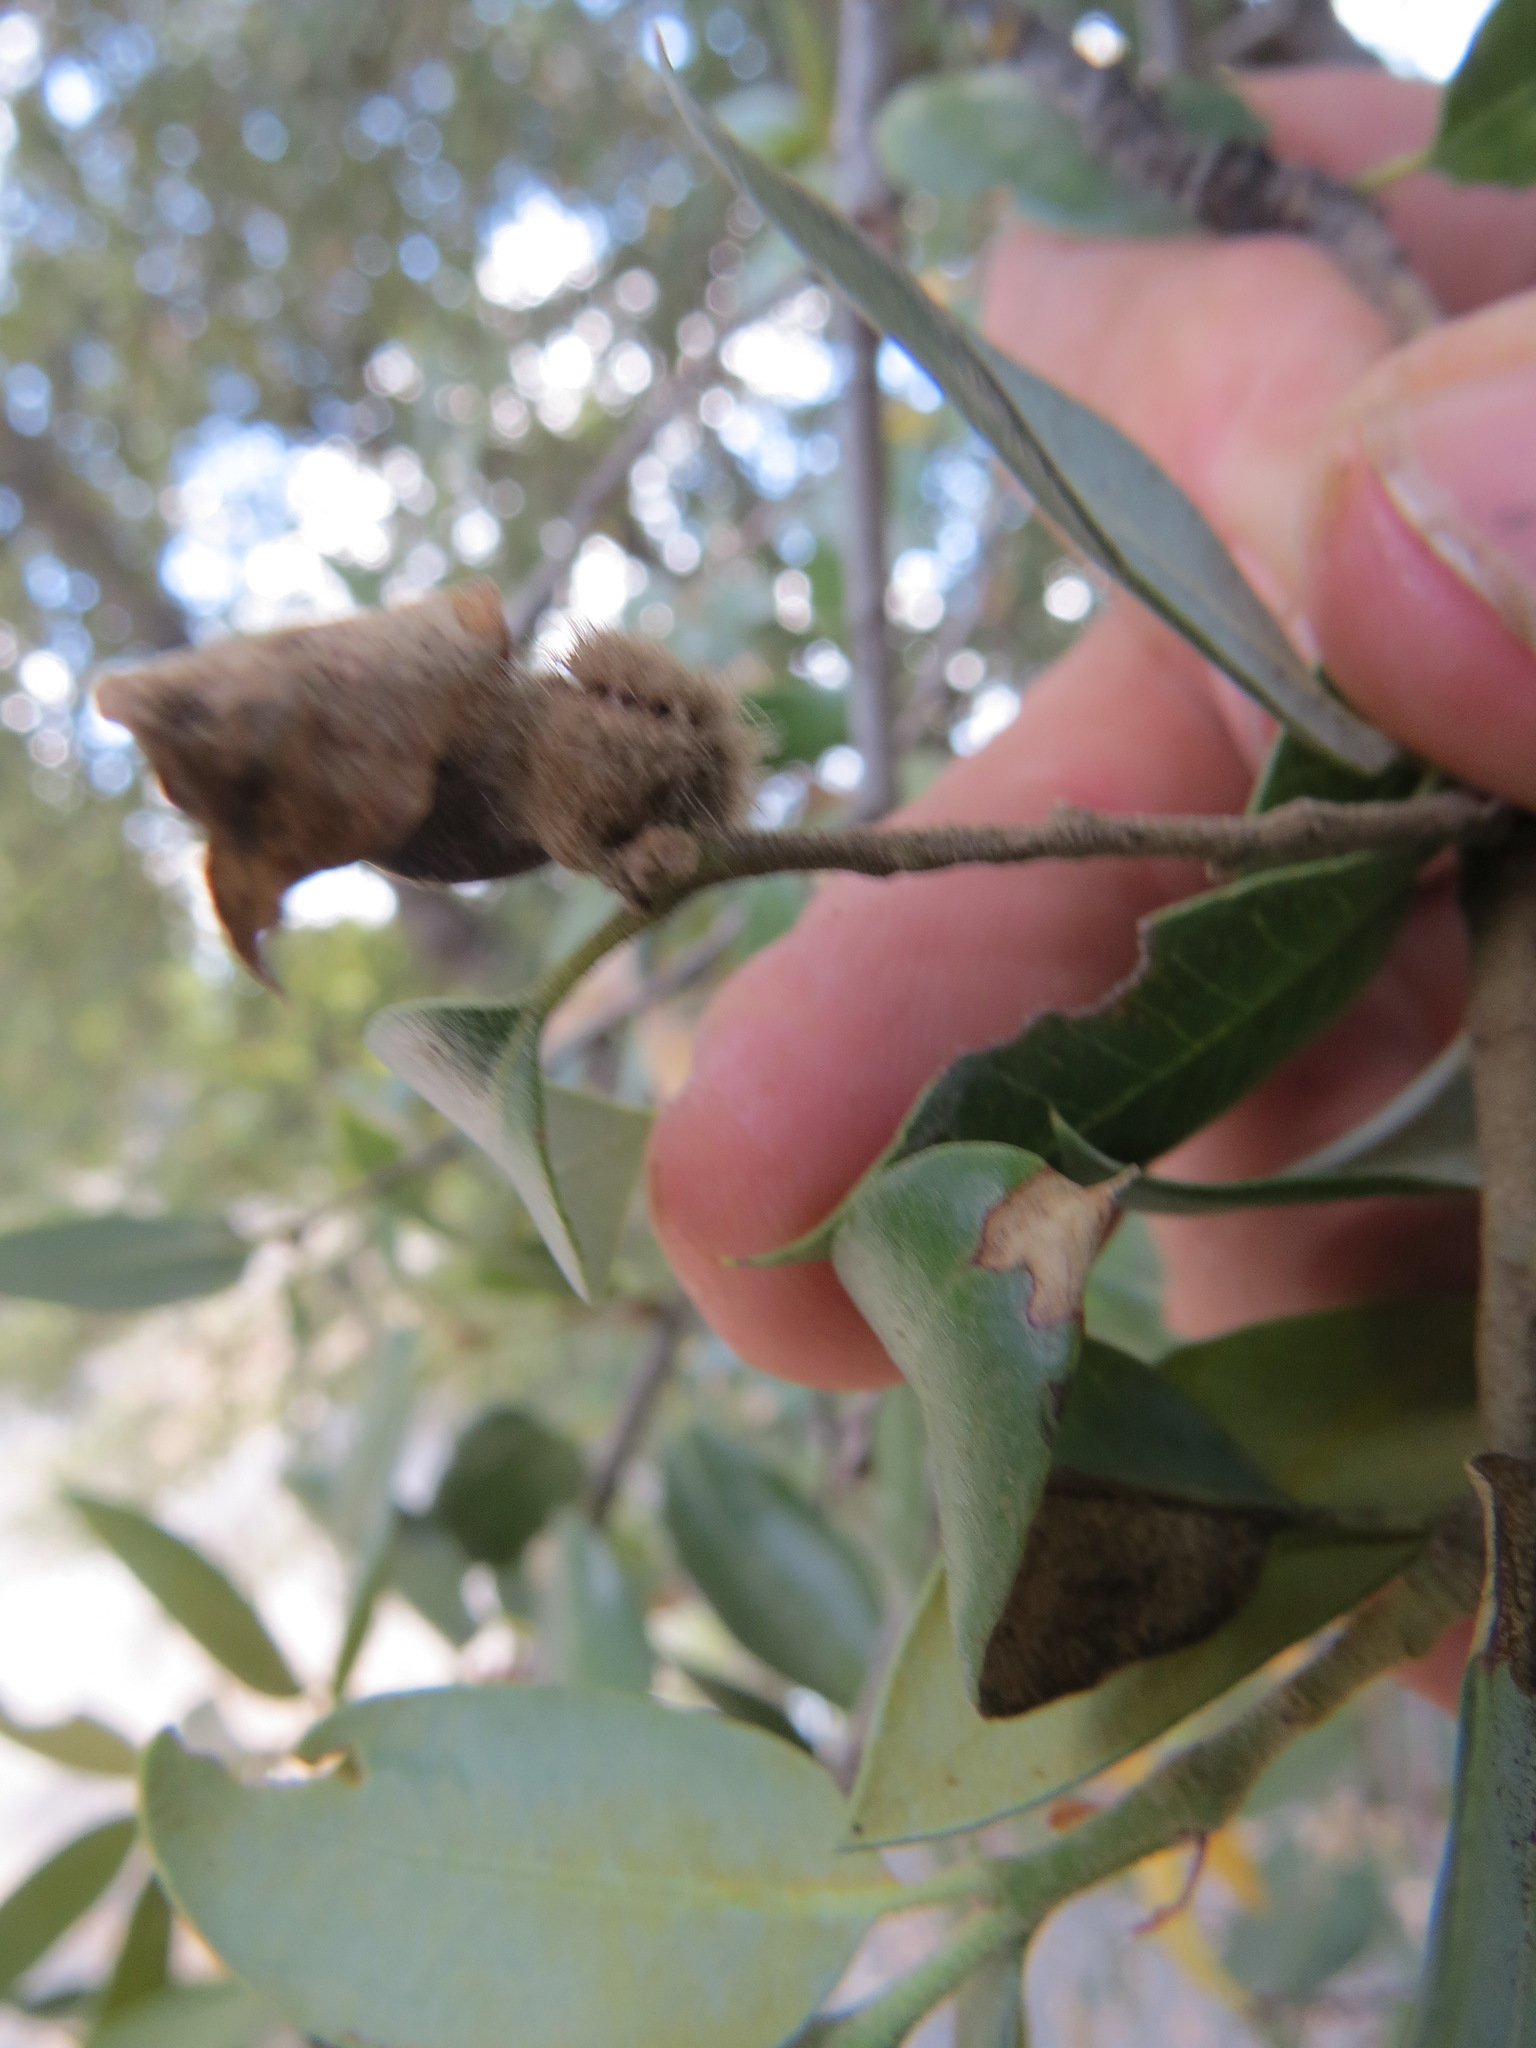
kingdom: Animalia
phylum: Arthropoda
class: Insecta
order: Hymenoptera
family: Cynipidae
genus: Disholandricus
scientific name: Disholandricus
